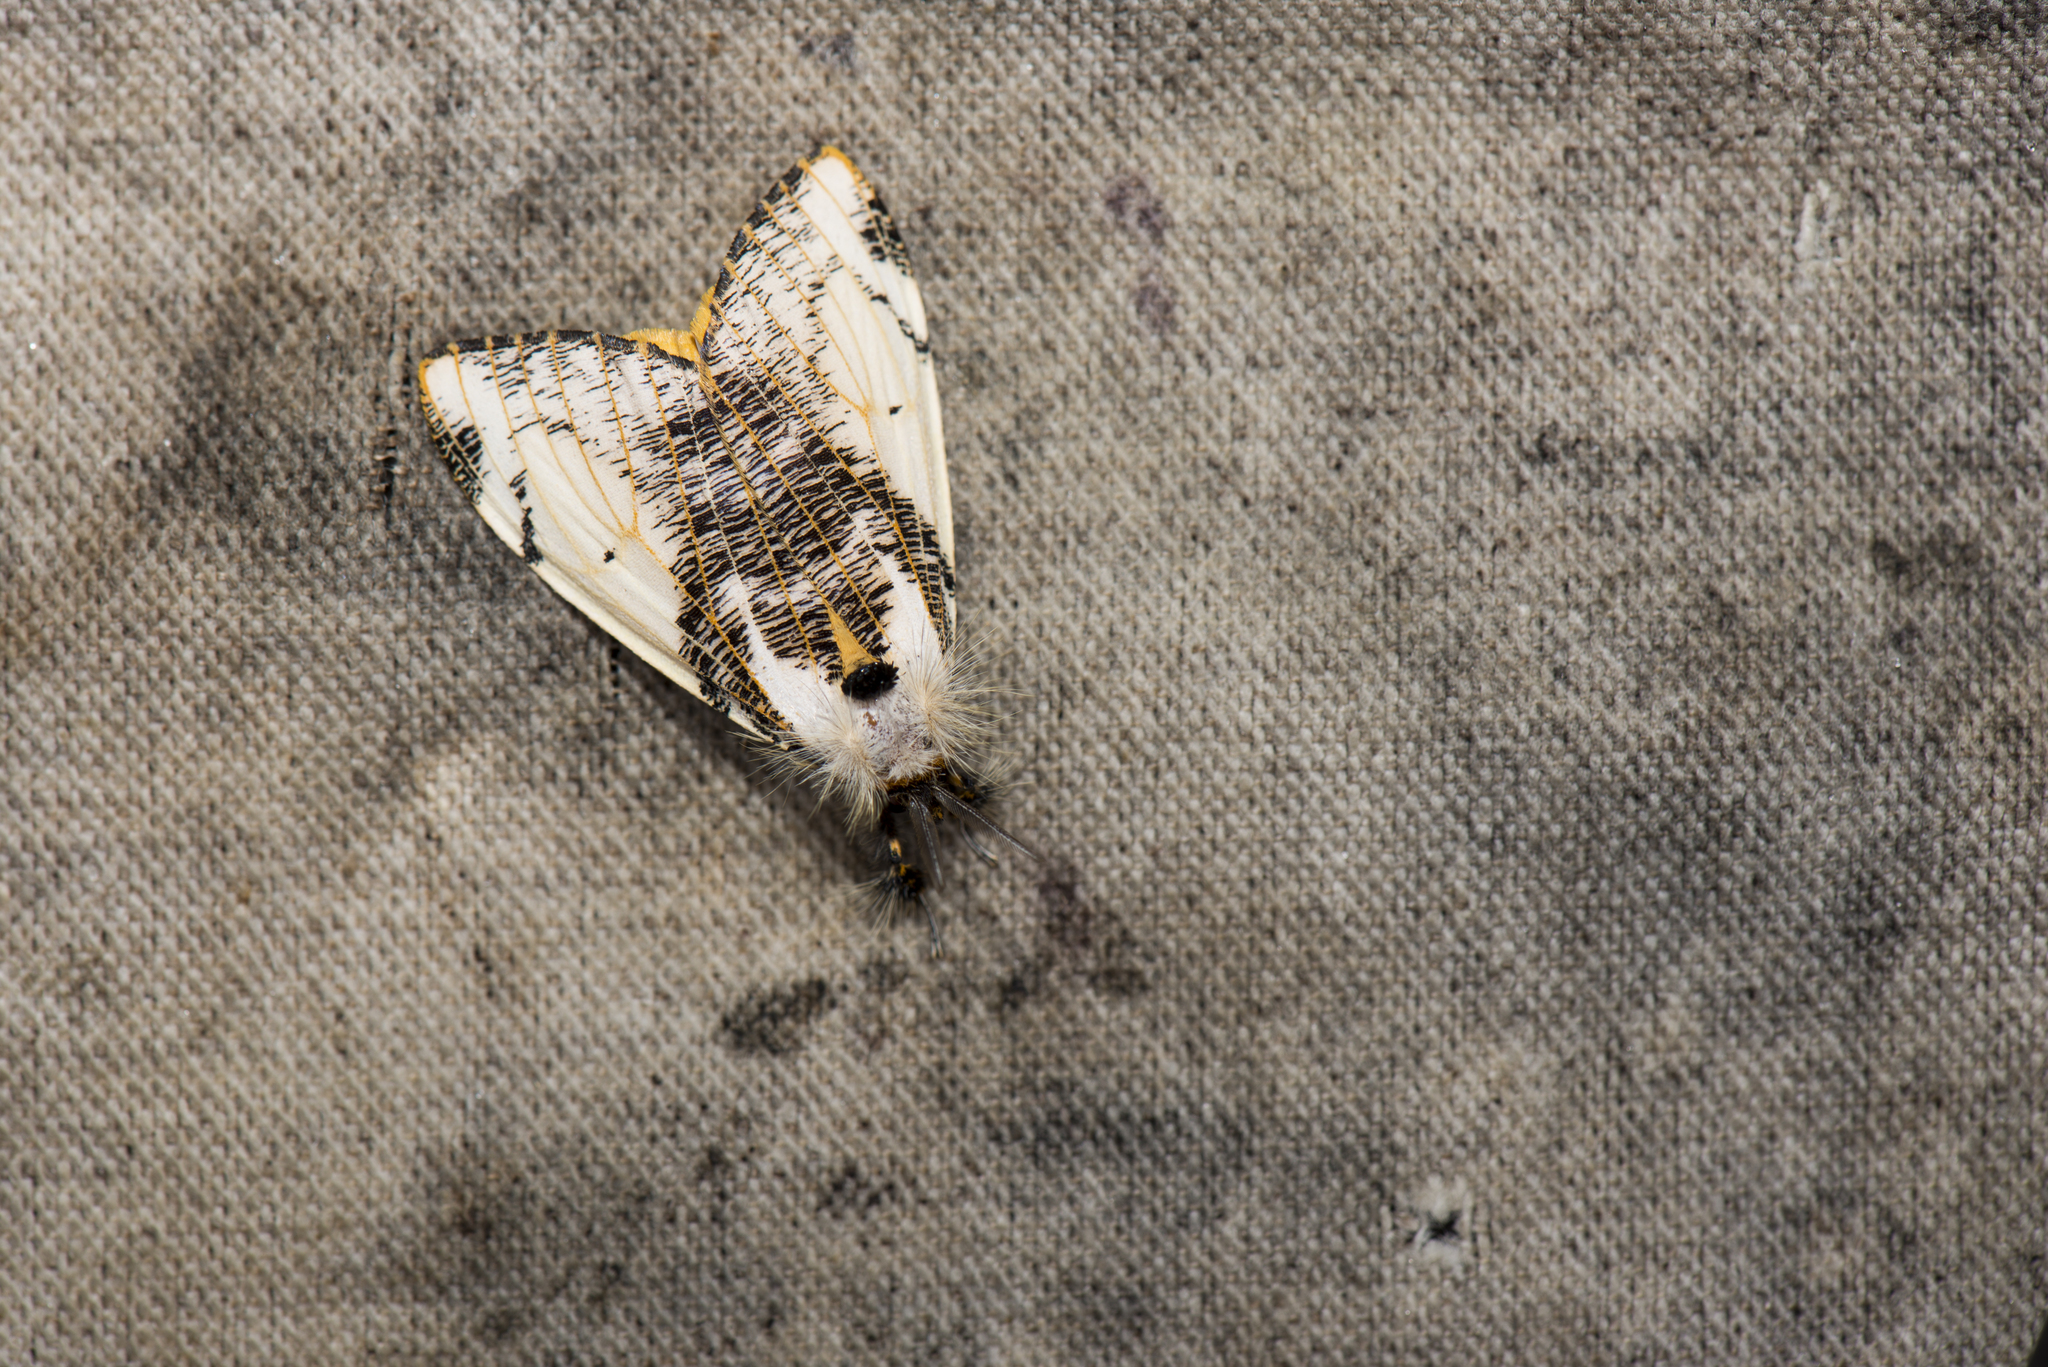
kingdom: Animalia
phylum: Arthropoda
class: Insecta
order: Lepidoptera
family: Erebidae
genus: Locharna
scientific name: Locharna strigipennis
